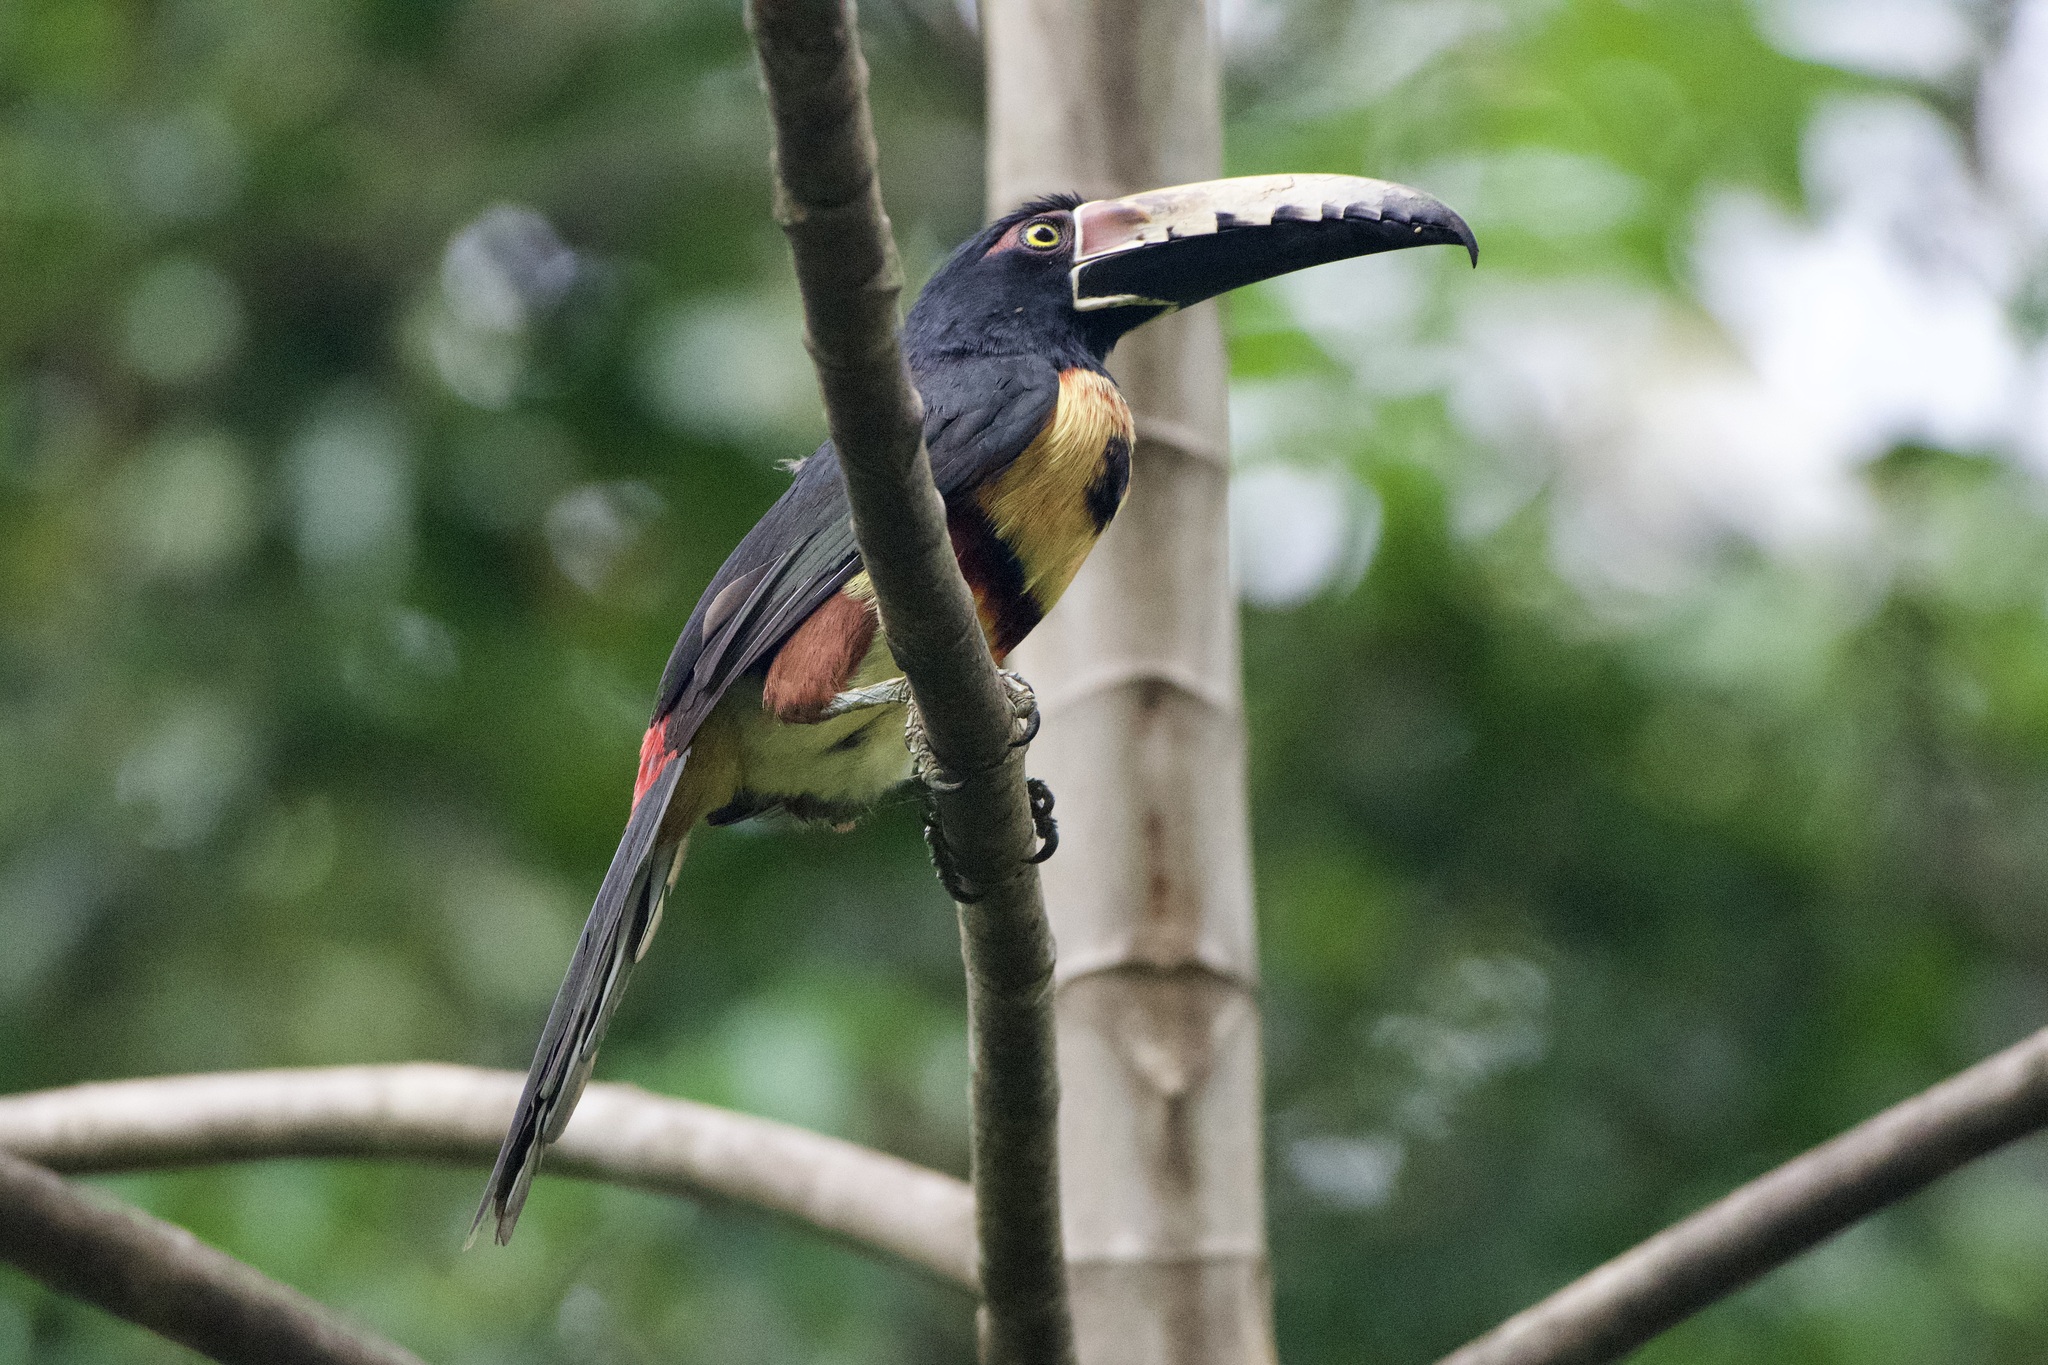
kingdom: Animalia
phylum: Chordata
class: Aves
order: Piciformes
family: Ramphastidae
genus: Pteroglossus
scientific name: Pteroglossus torquatus
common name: Collared aracari
